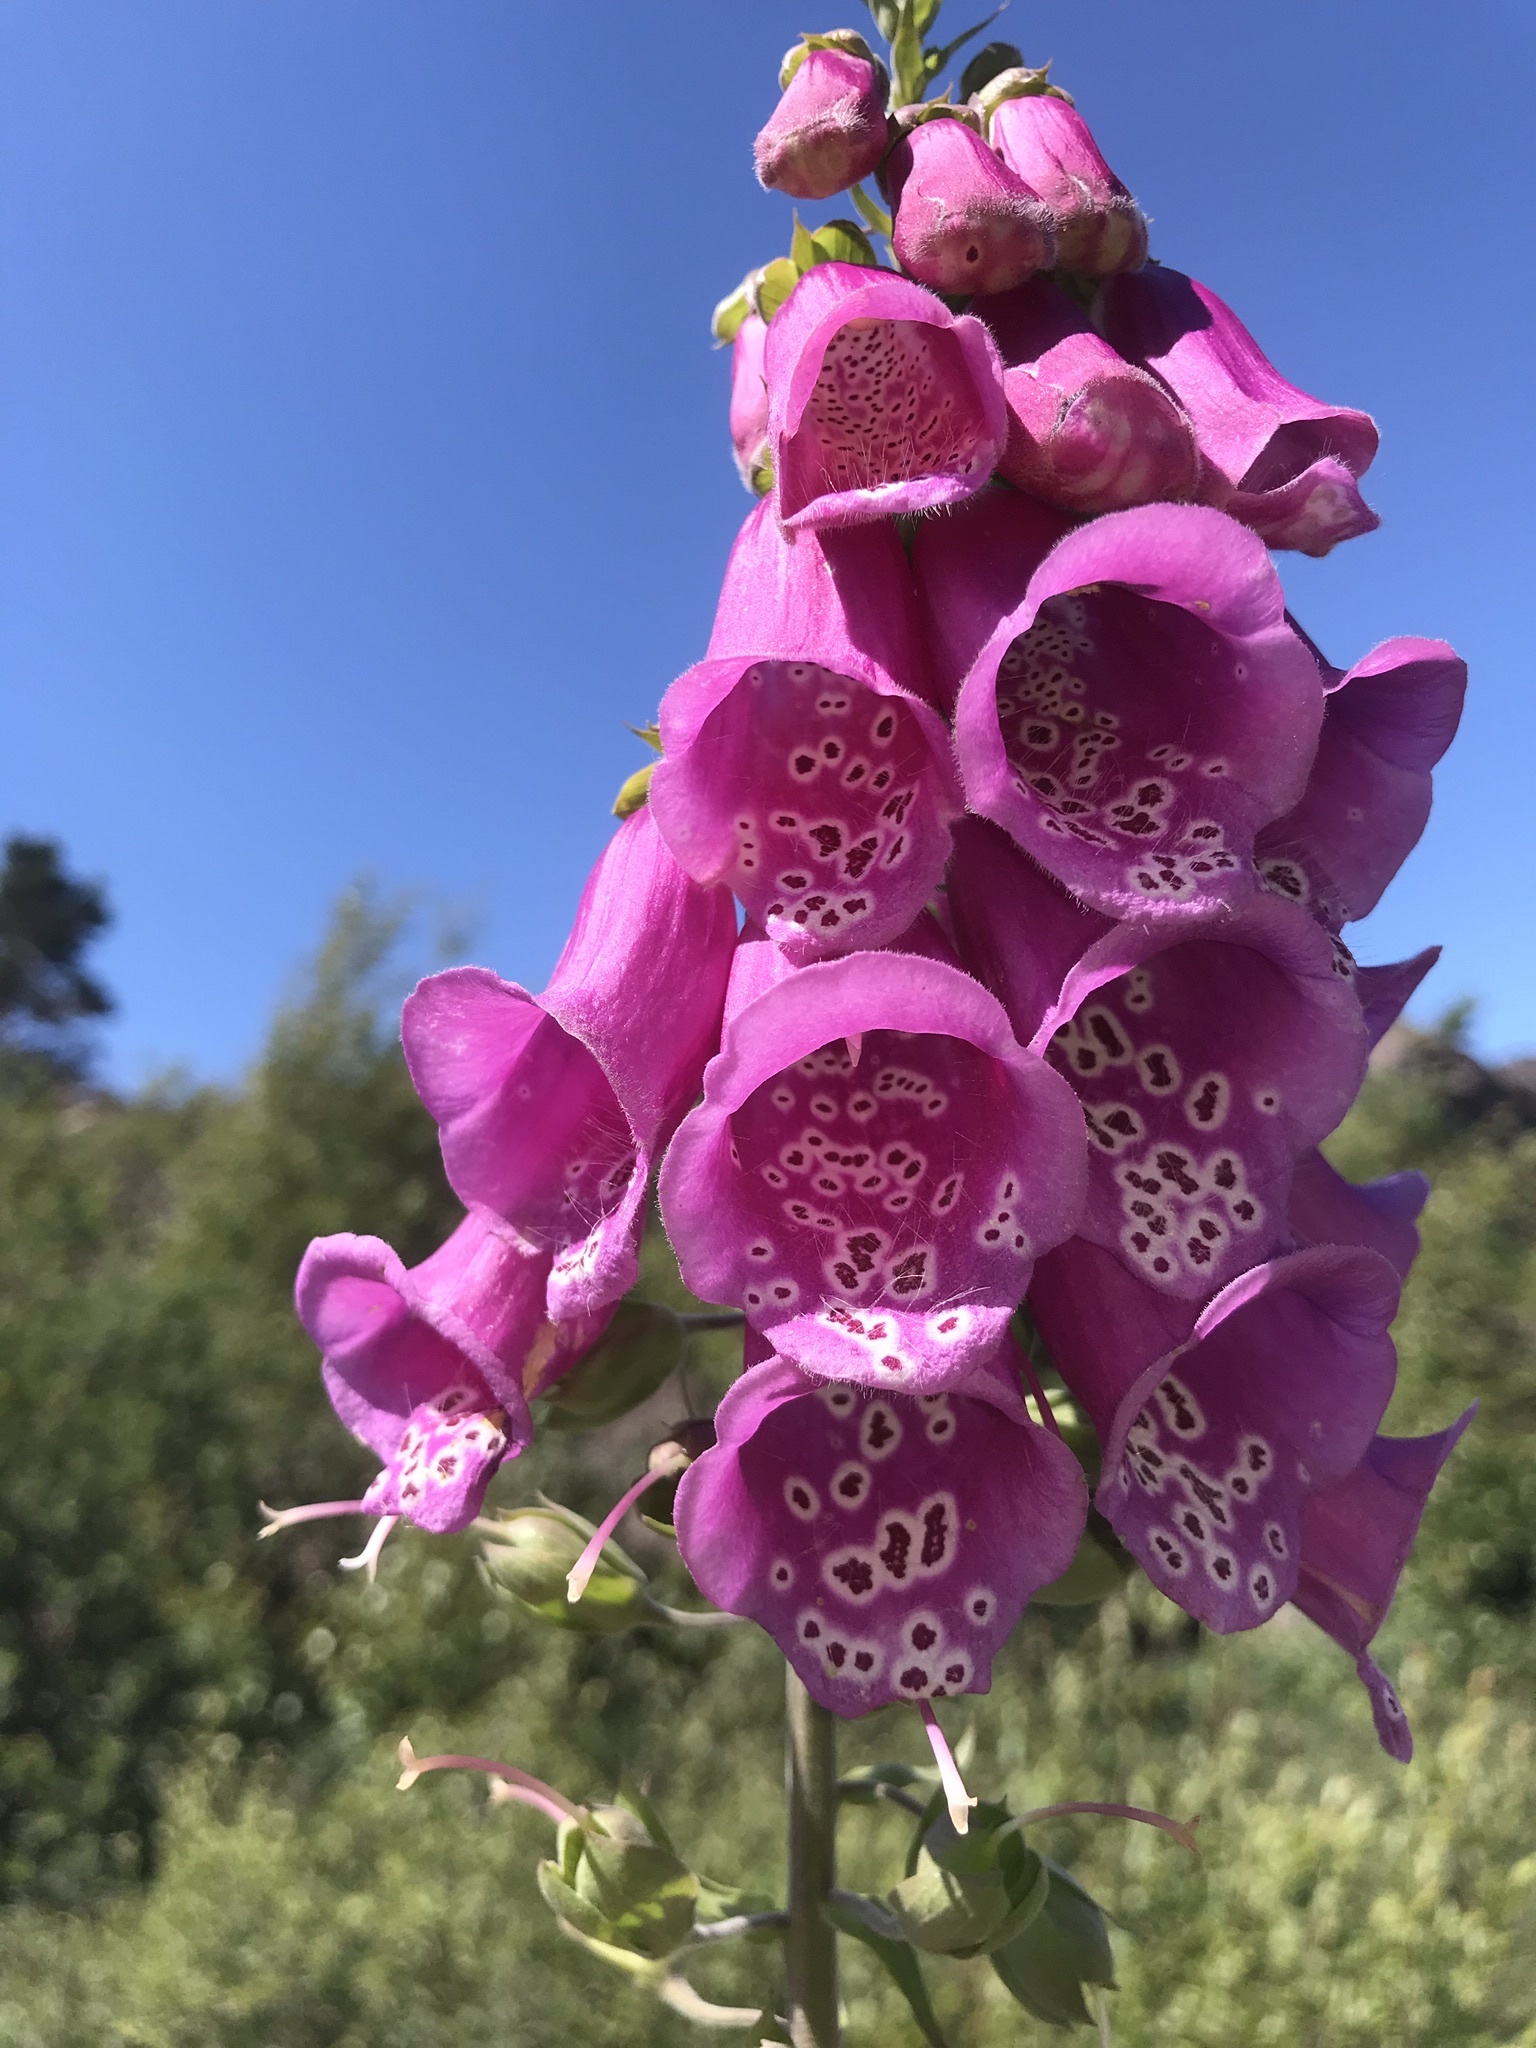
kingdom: Plantae
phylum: Tracheophyta
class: Magnoliopsida
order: Lamiales
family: Plantaginaceae
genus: Digitalis
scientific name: Digitalis purpurea
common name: Foxglove
